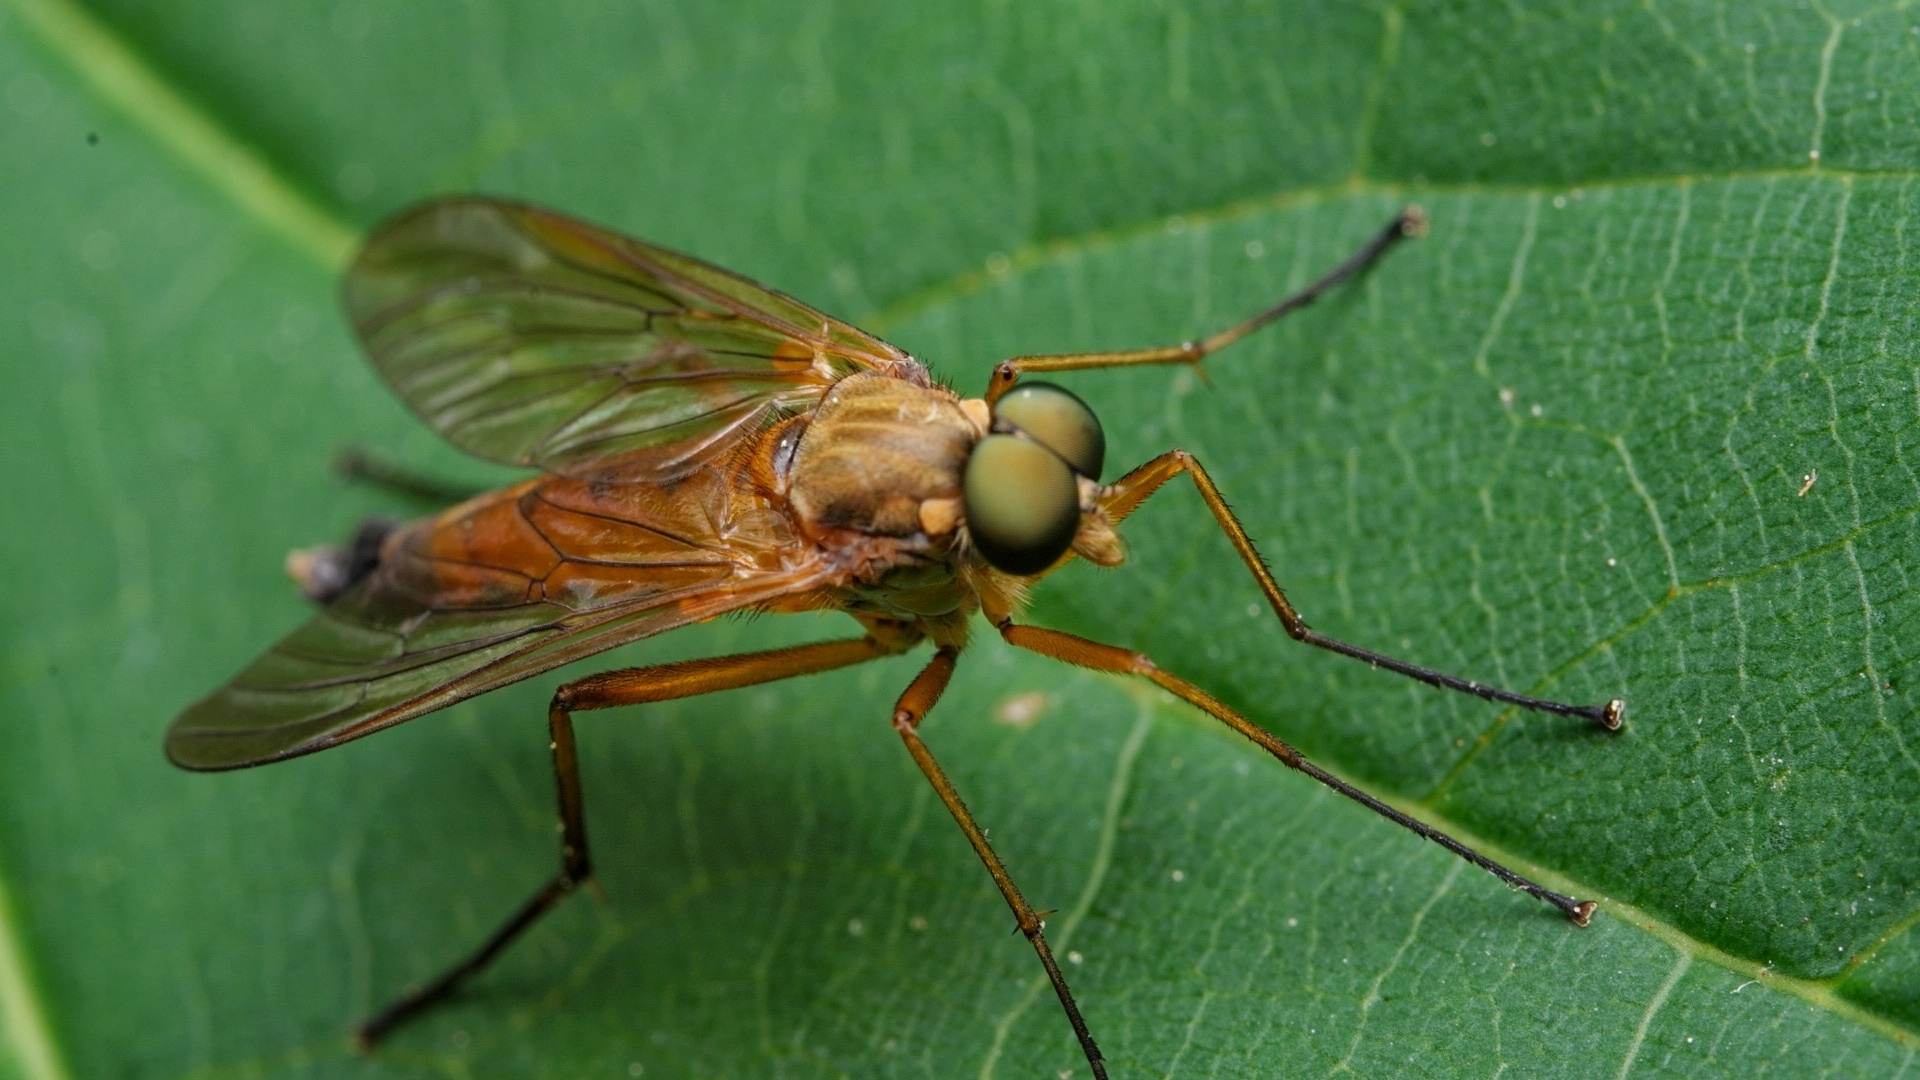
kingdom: Animalia
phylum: Arthropoda
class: Insecta
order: Diptera
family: Rhagionidae
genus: Rhagio
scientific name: Rhagio tringaria
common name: Marsh snipefly
